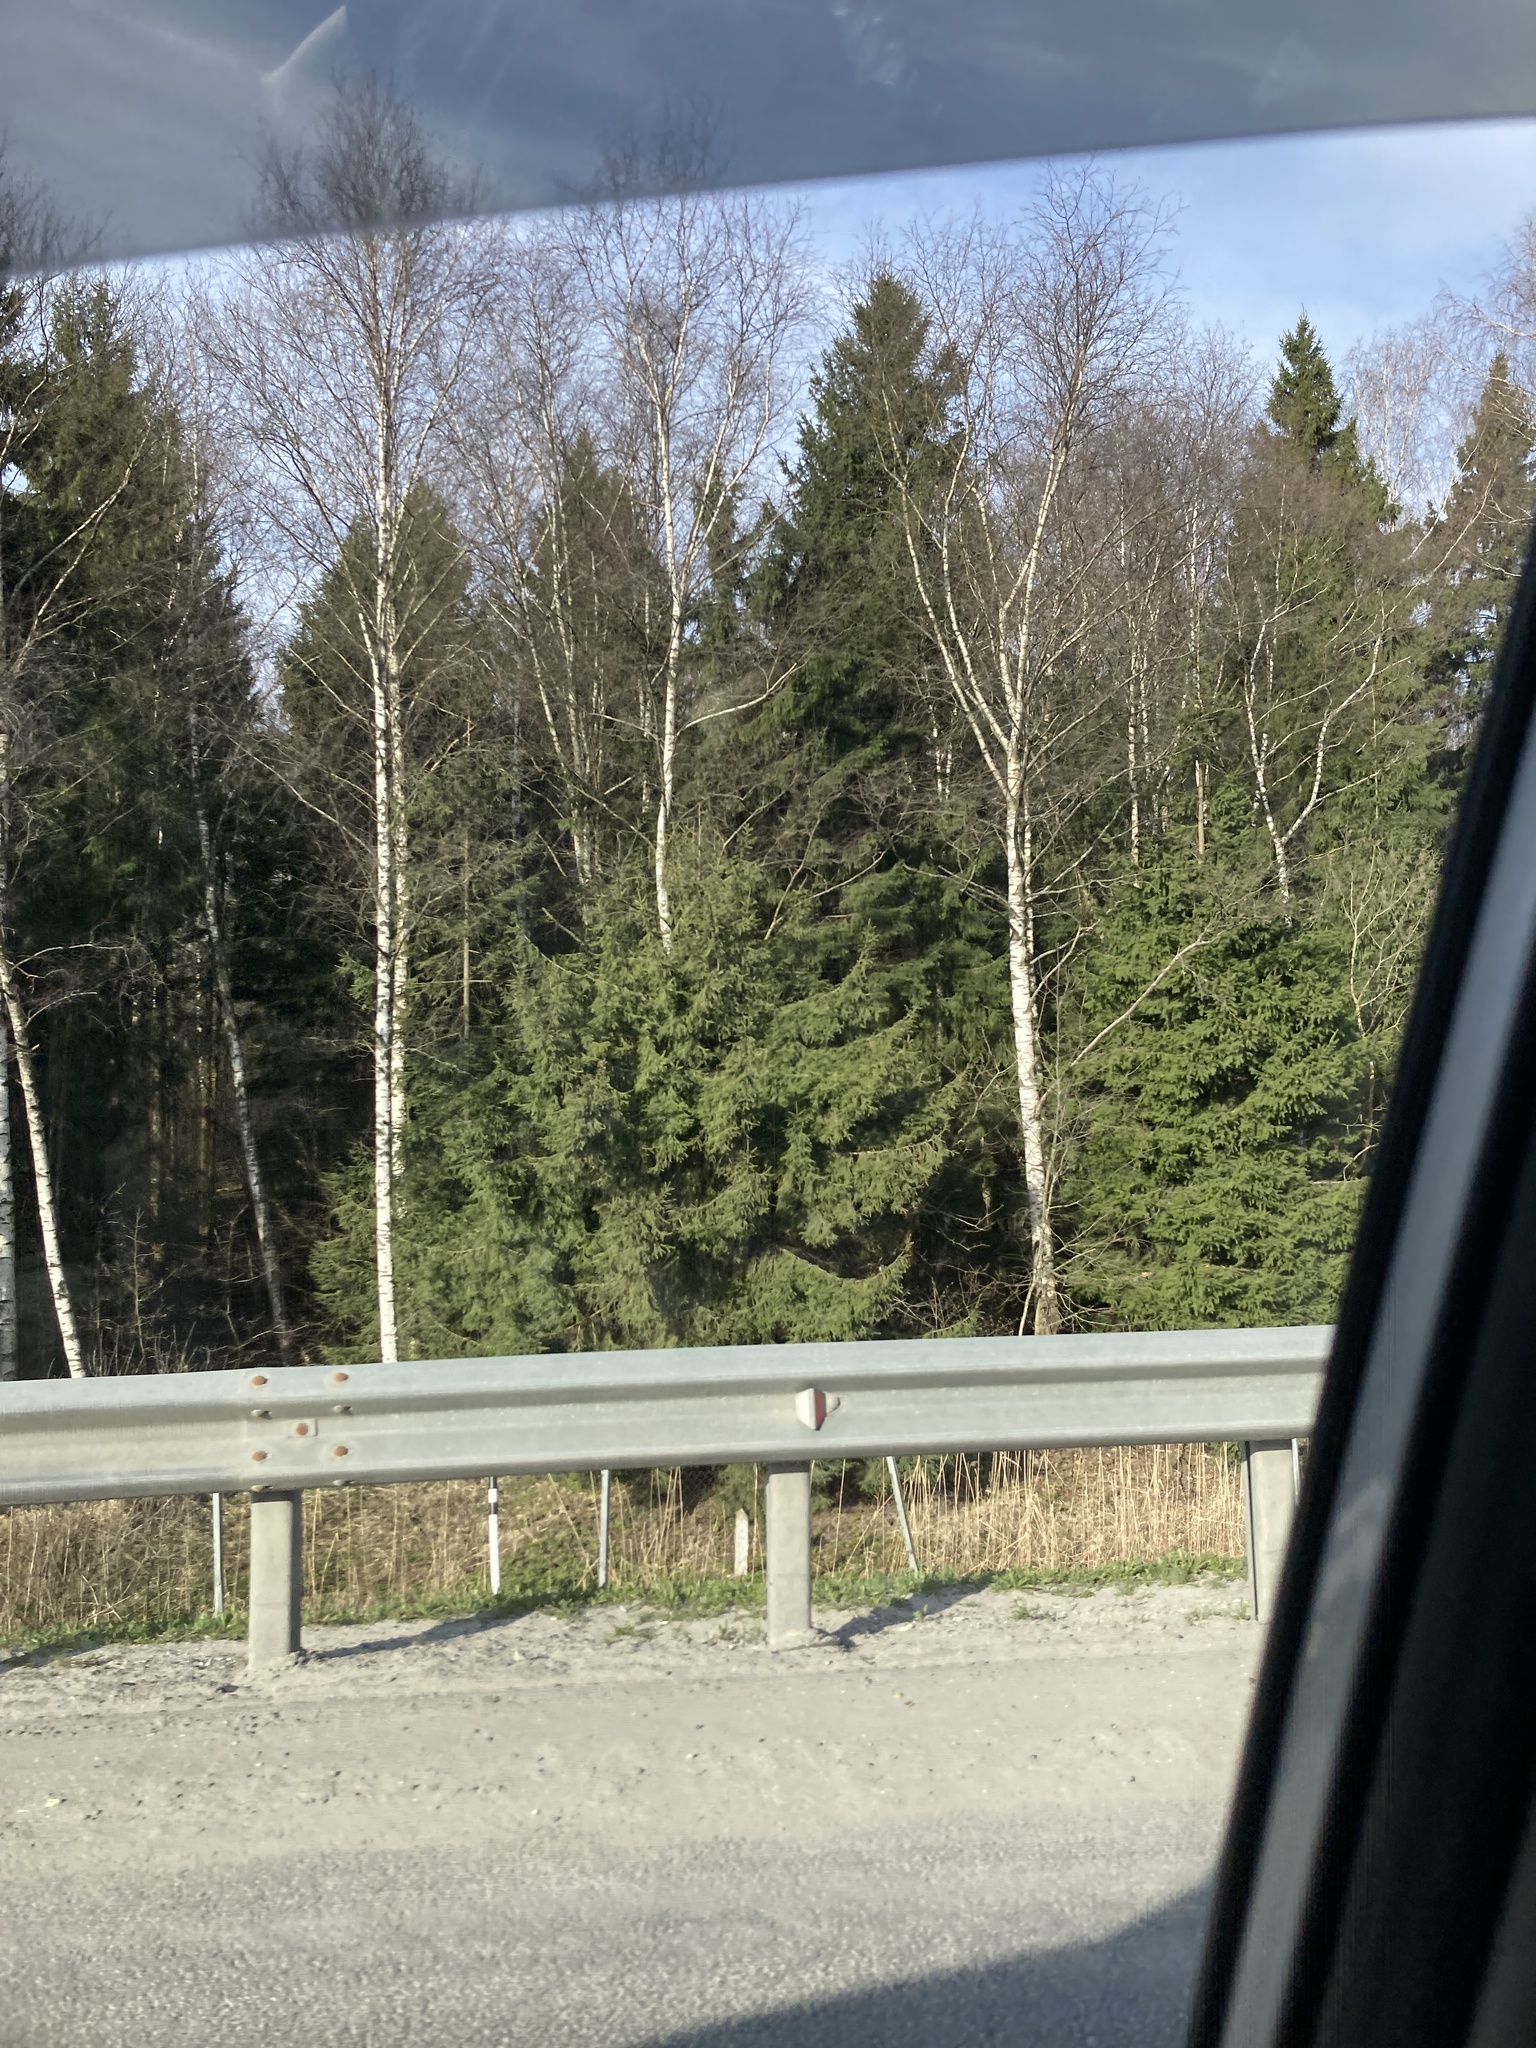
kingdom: Plantae
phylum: Tracheophyta
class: Pinopsida
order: Pinales
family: Pinaceae
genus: Picea
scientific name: Picea abies
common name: Norway spruce
